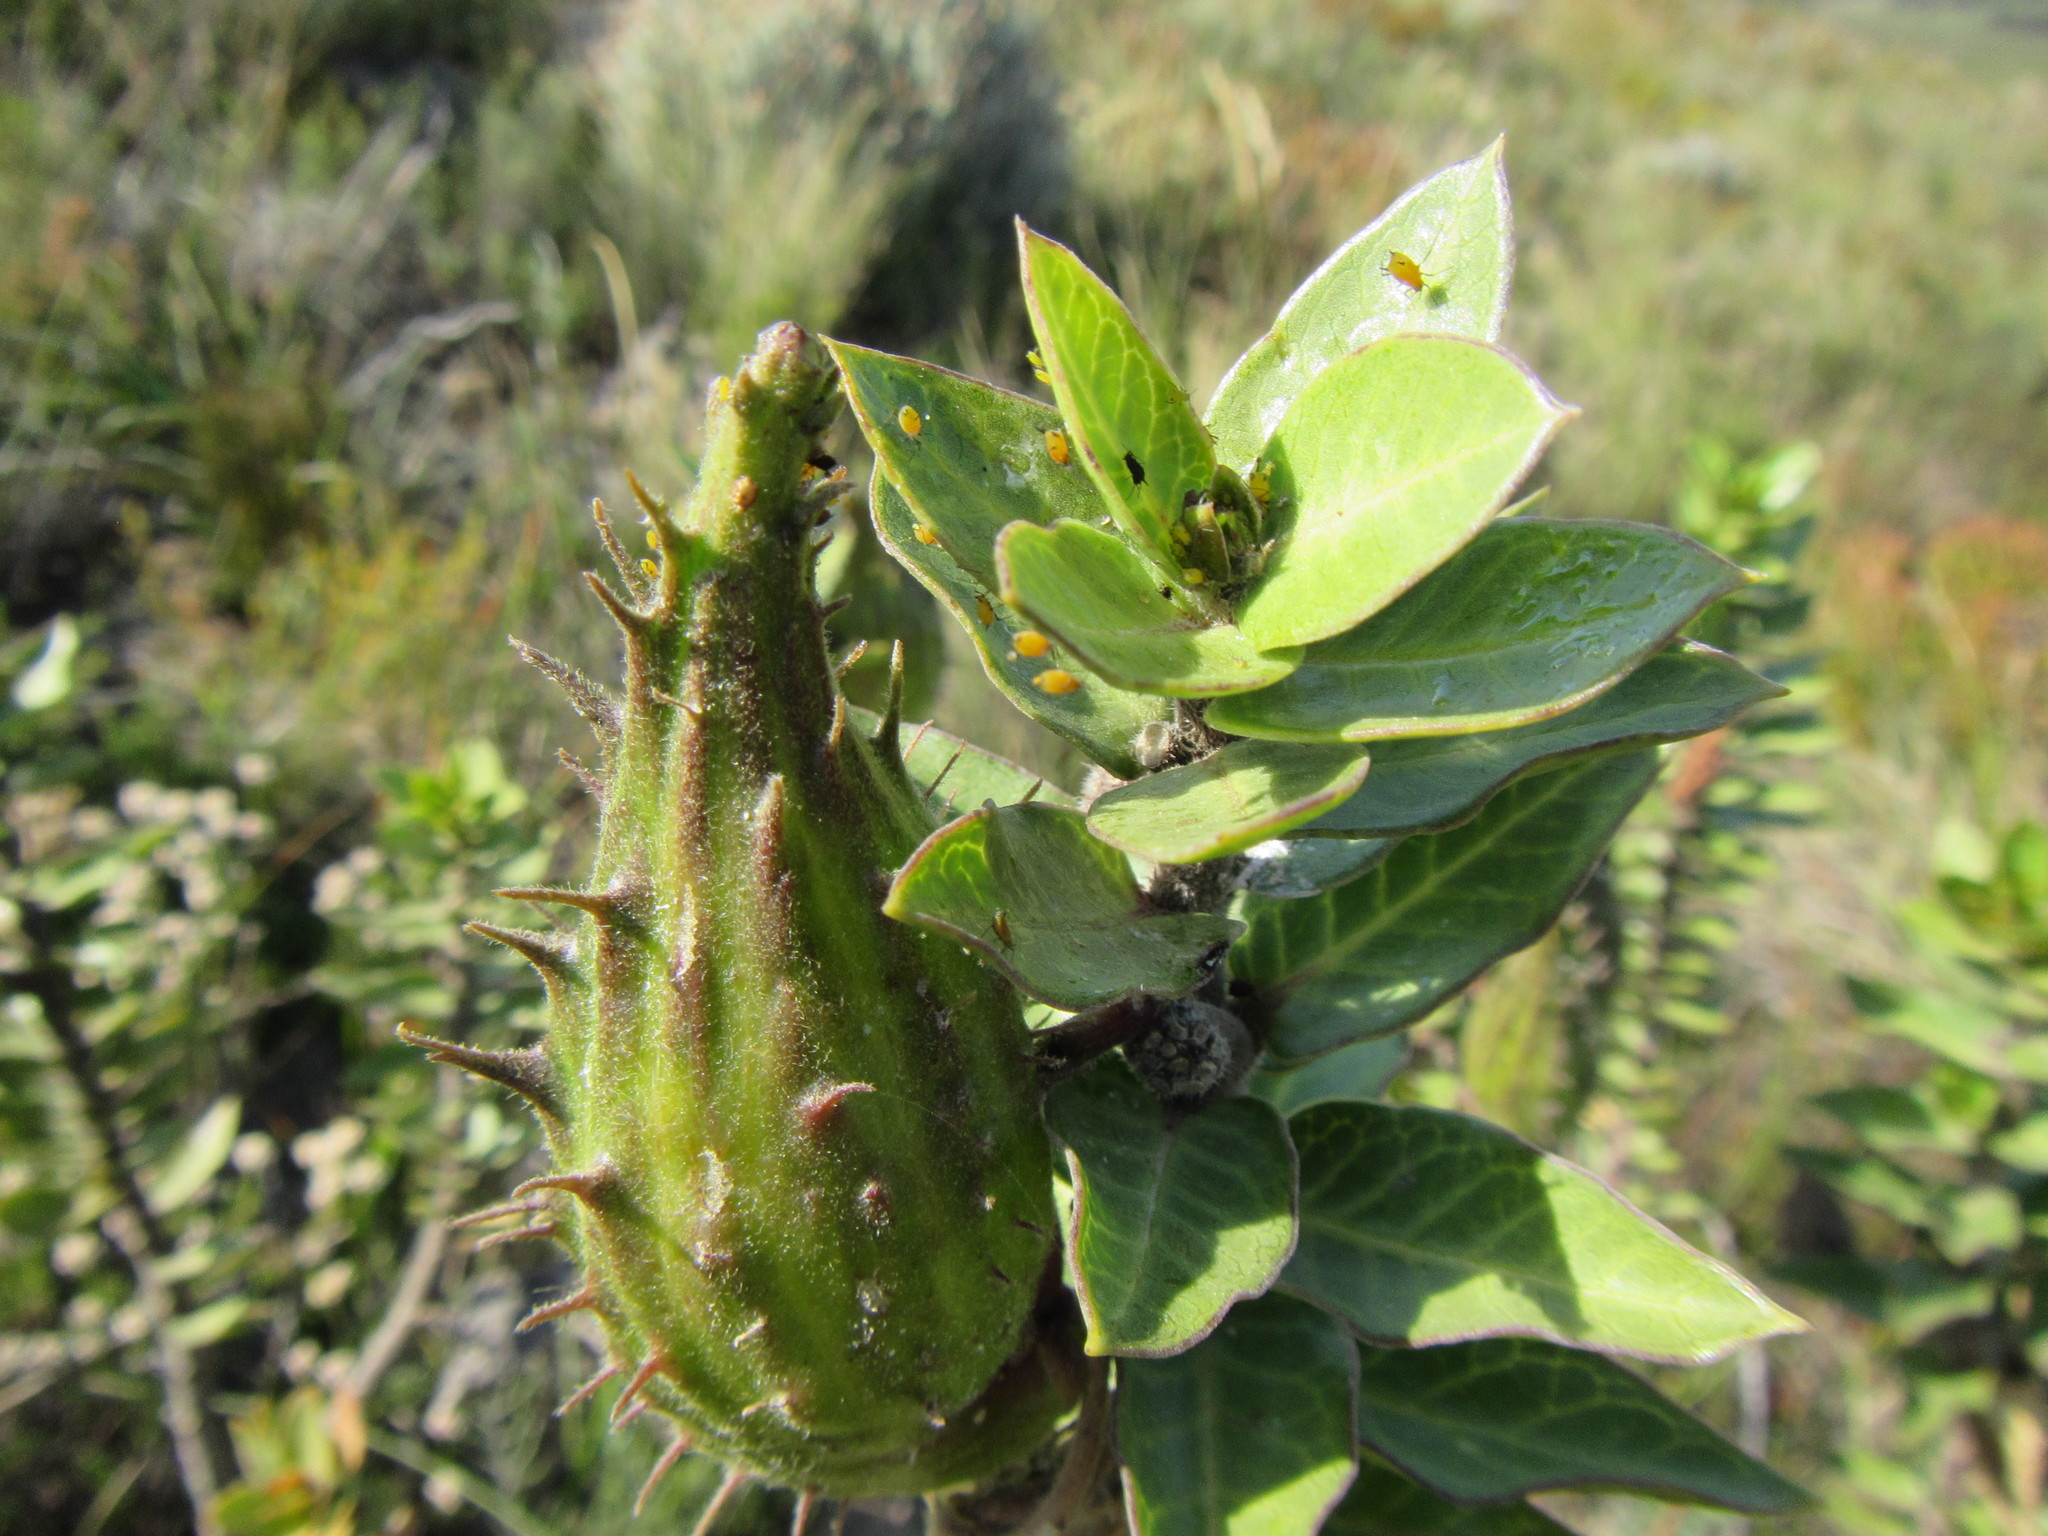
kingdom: Plantae
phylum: Tracheophyta
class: Magnoliopsida
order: Gentianales
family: Apocynaceae
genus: Gomphocarpus
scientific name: Gomphocarpus cancellatus
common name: Wild cotton
